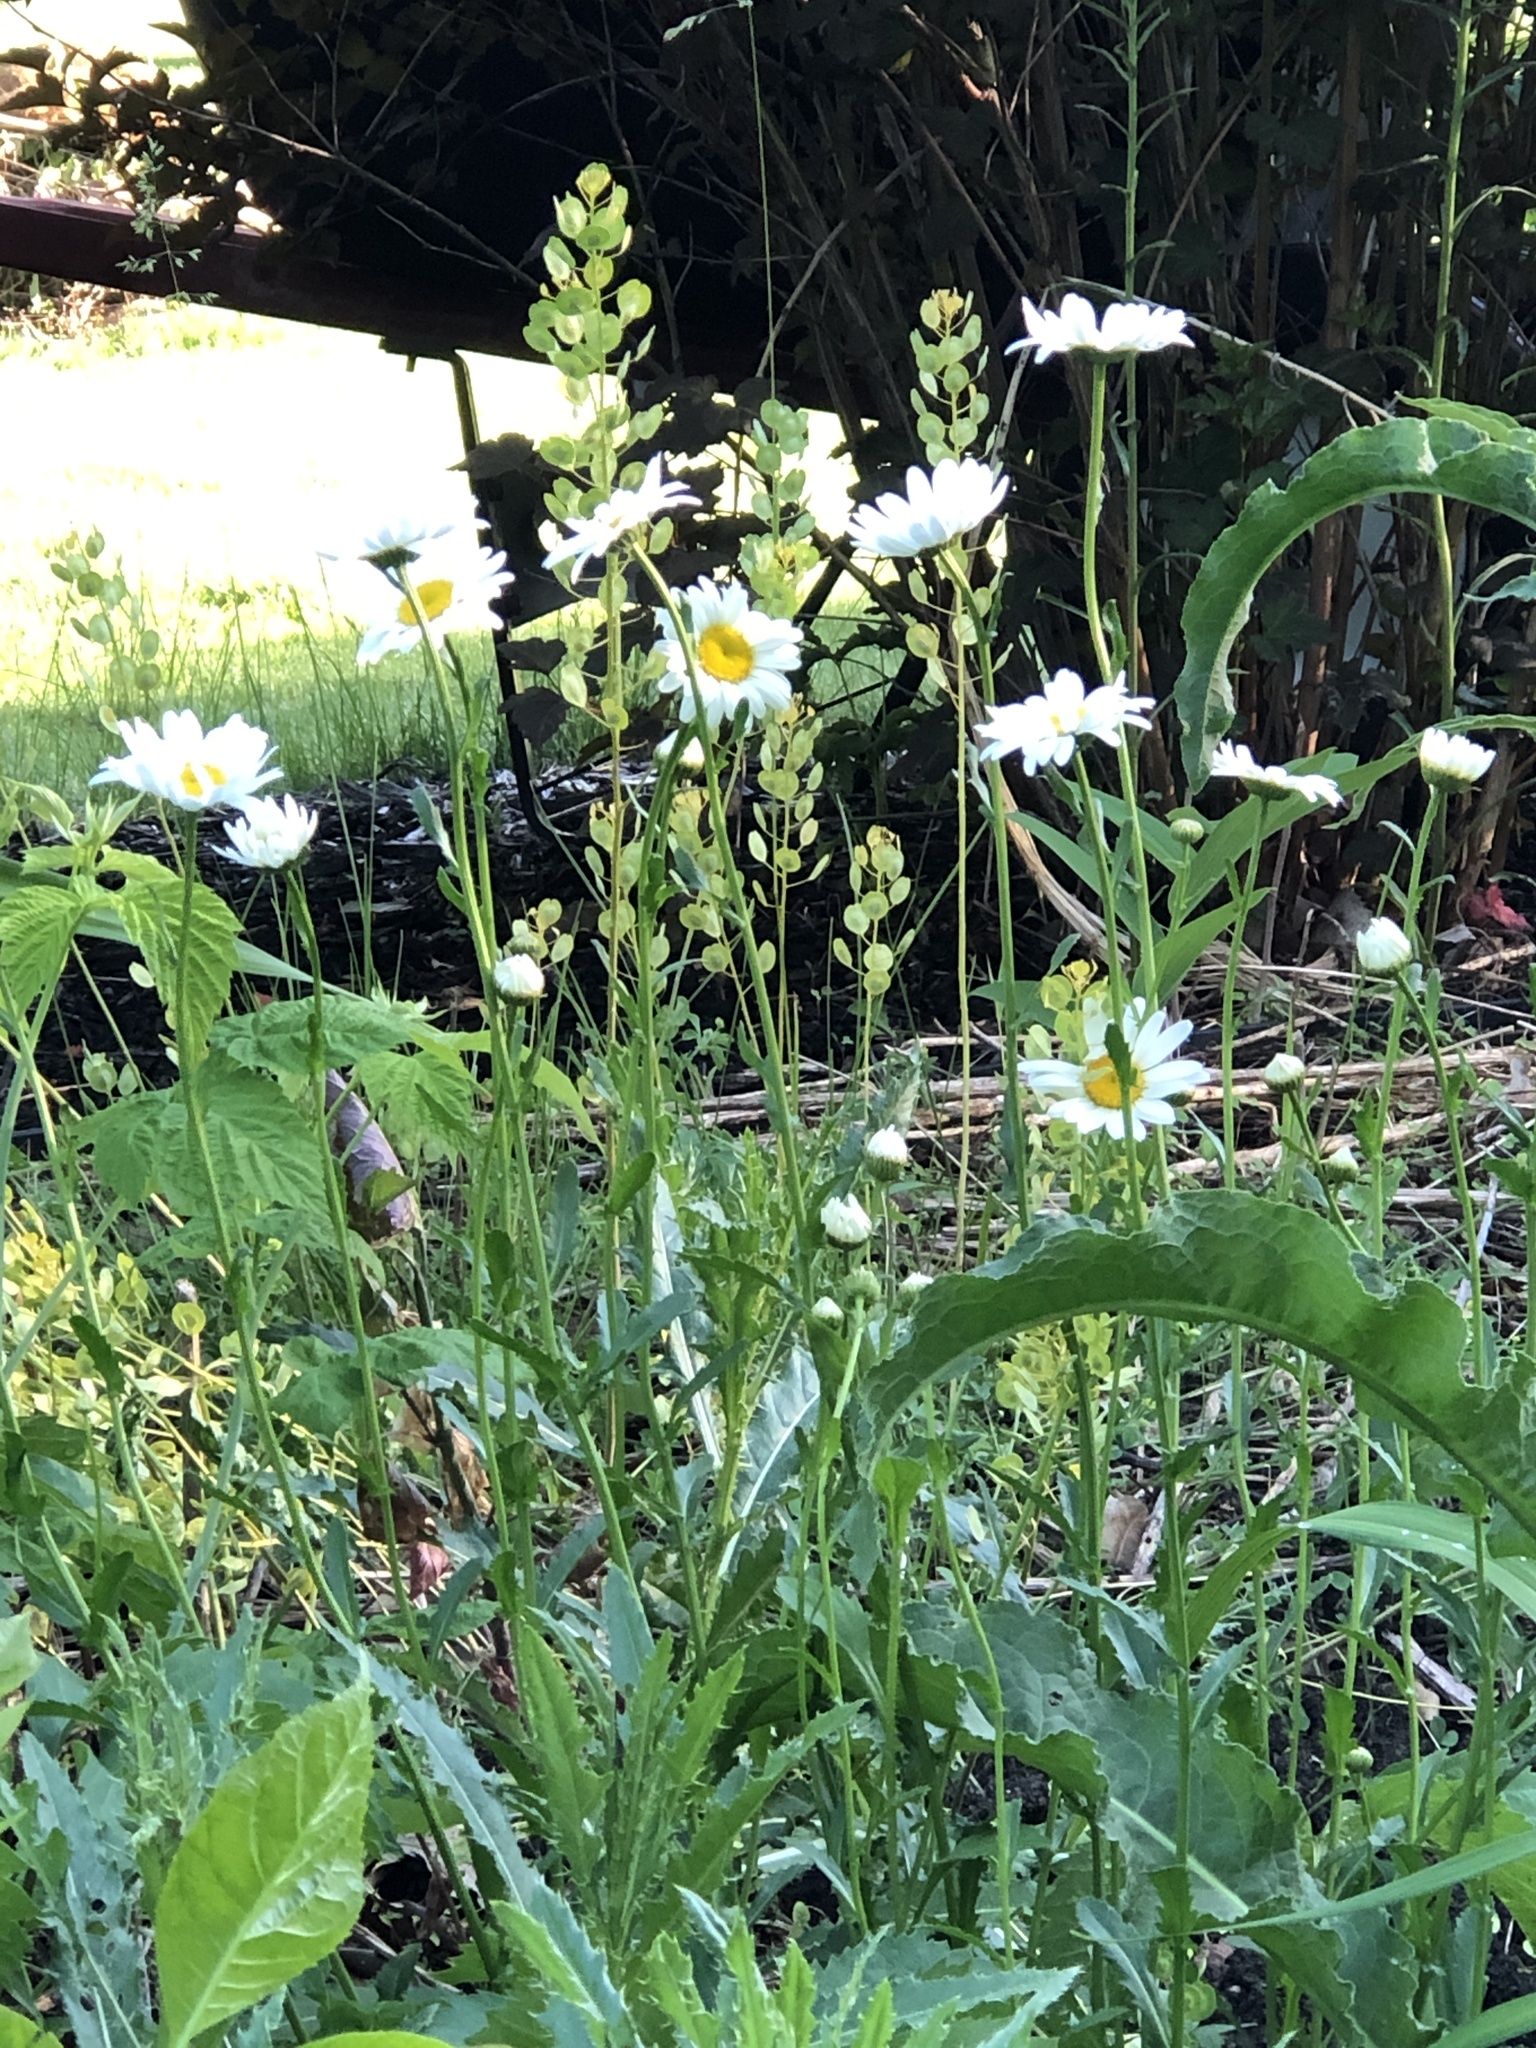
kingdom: Plantae
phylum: Tracheophyta
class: Magnoliopsida
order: Asterales
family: Asteraceae
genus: Leucanthemum
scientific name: Leucanthemum vulgare
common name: Oxeye daisy
